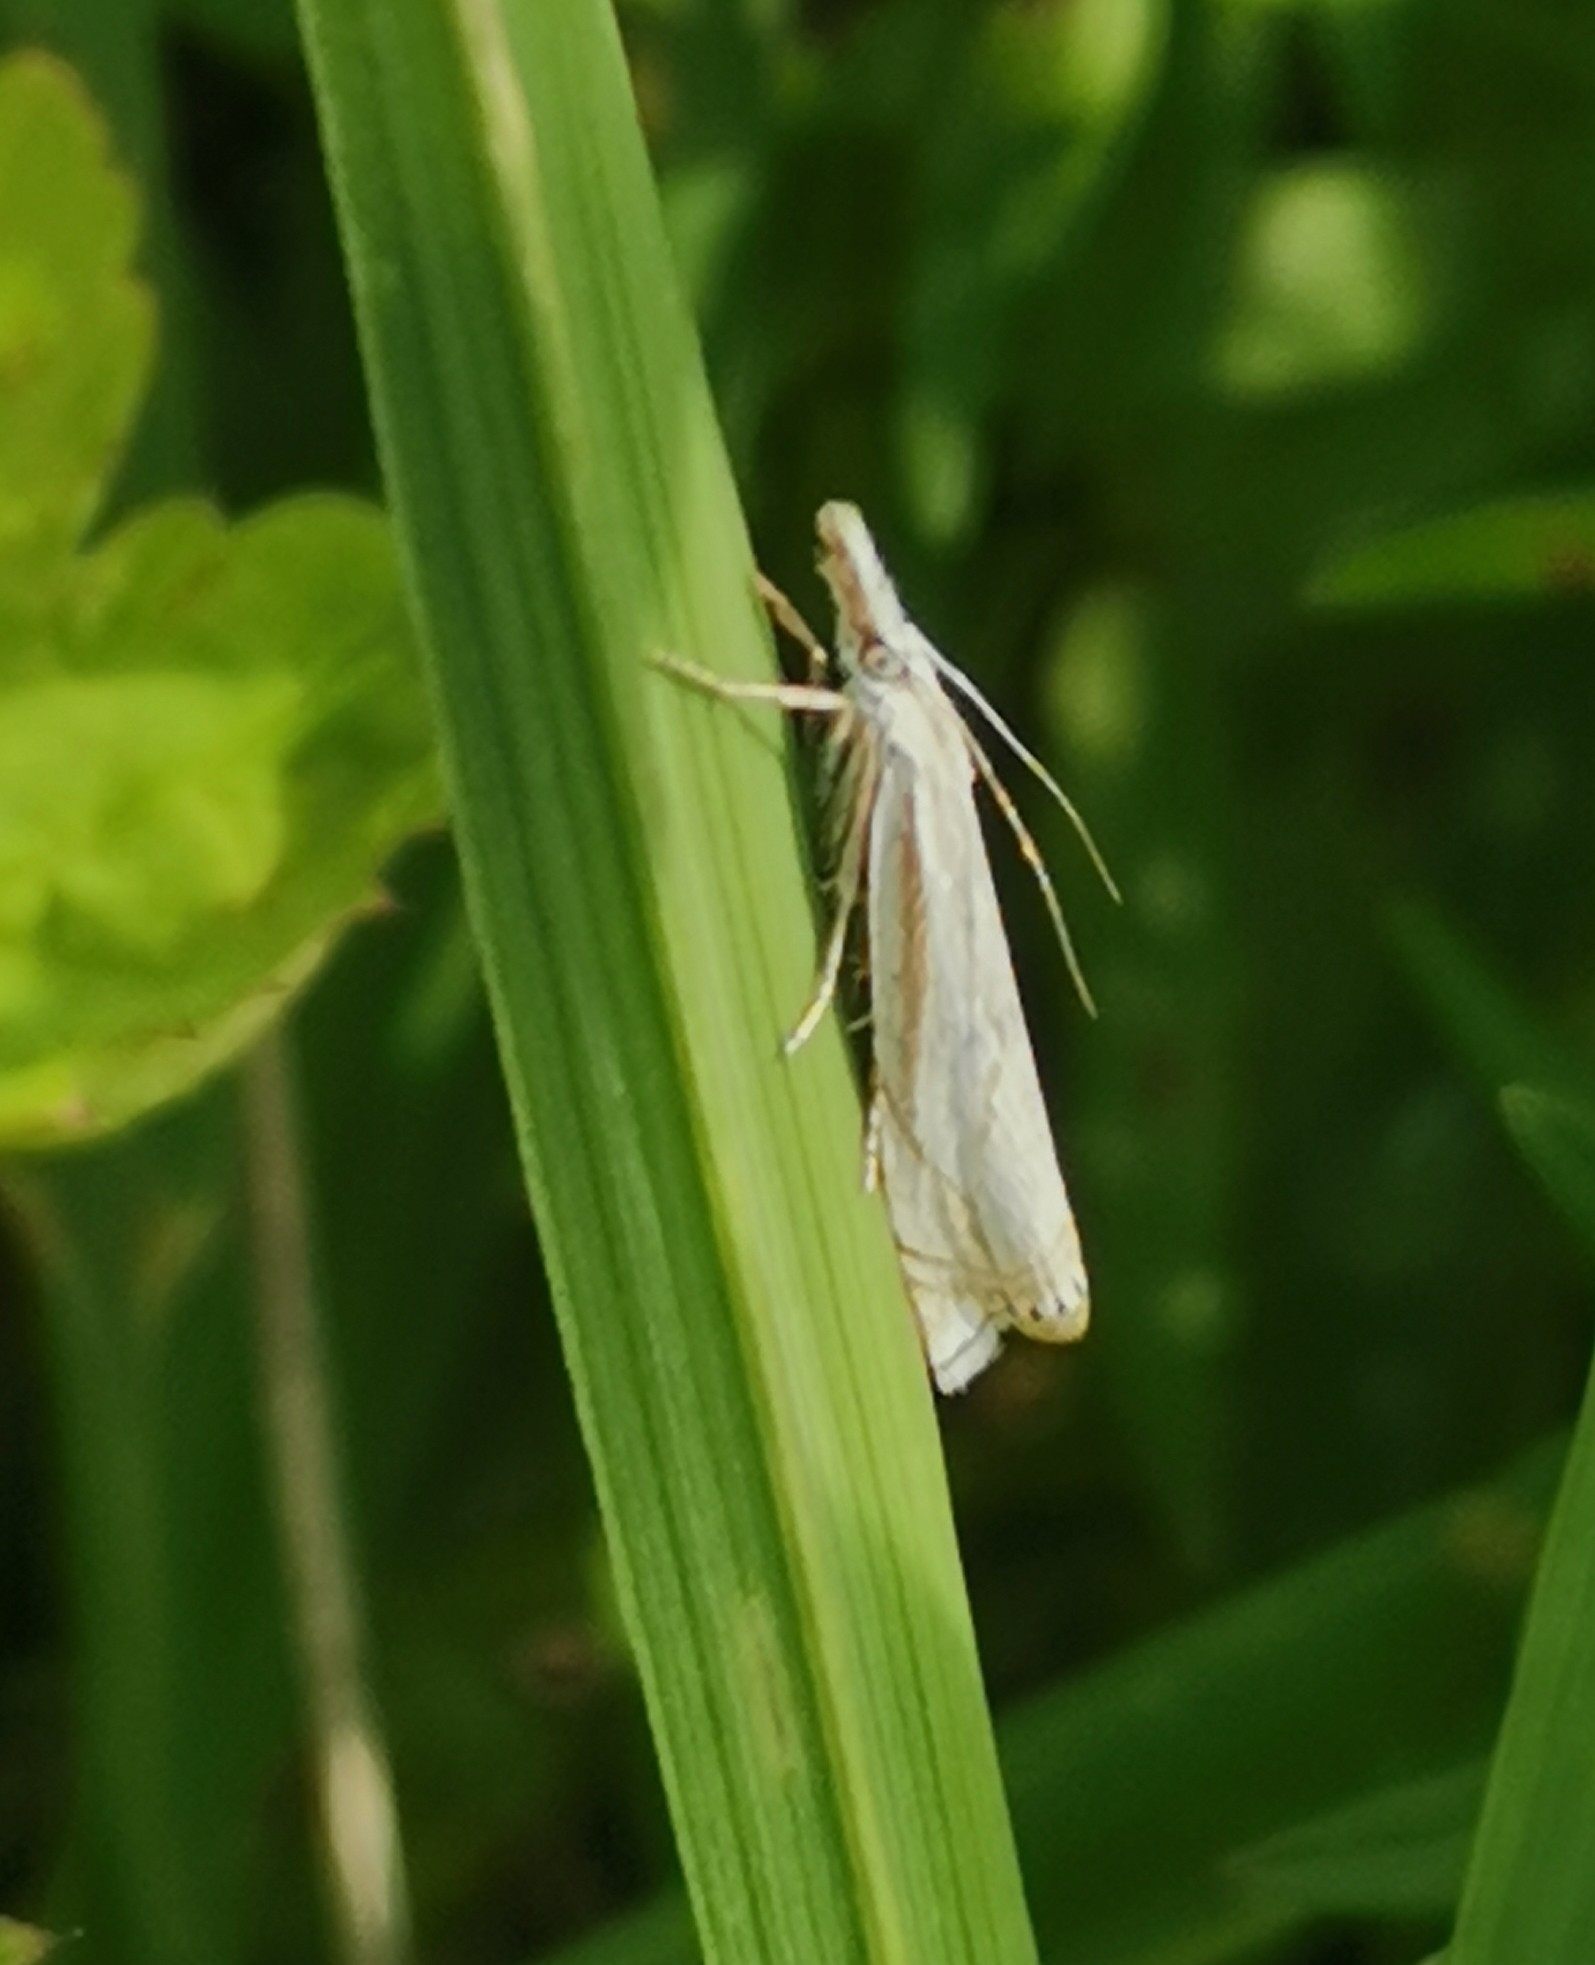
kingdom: Animalia
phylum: Arthropoda
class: Insecta
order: Lepidoptera
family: Crambidae
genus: Crambus
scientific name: Crambus nemorella
